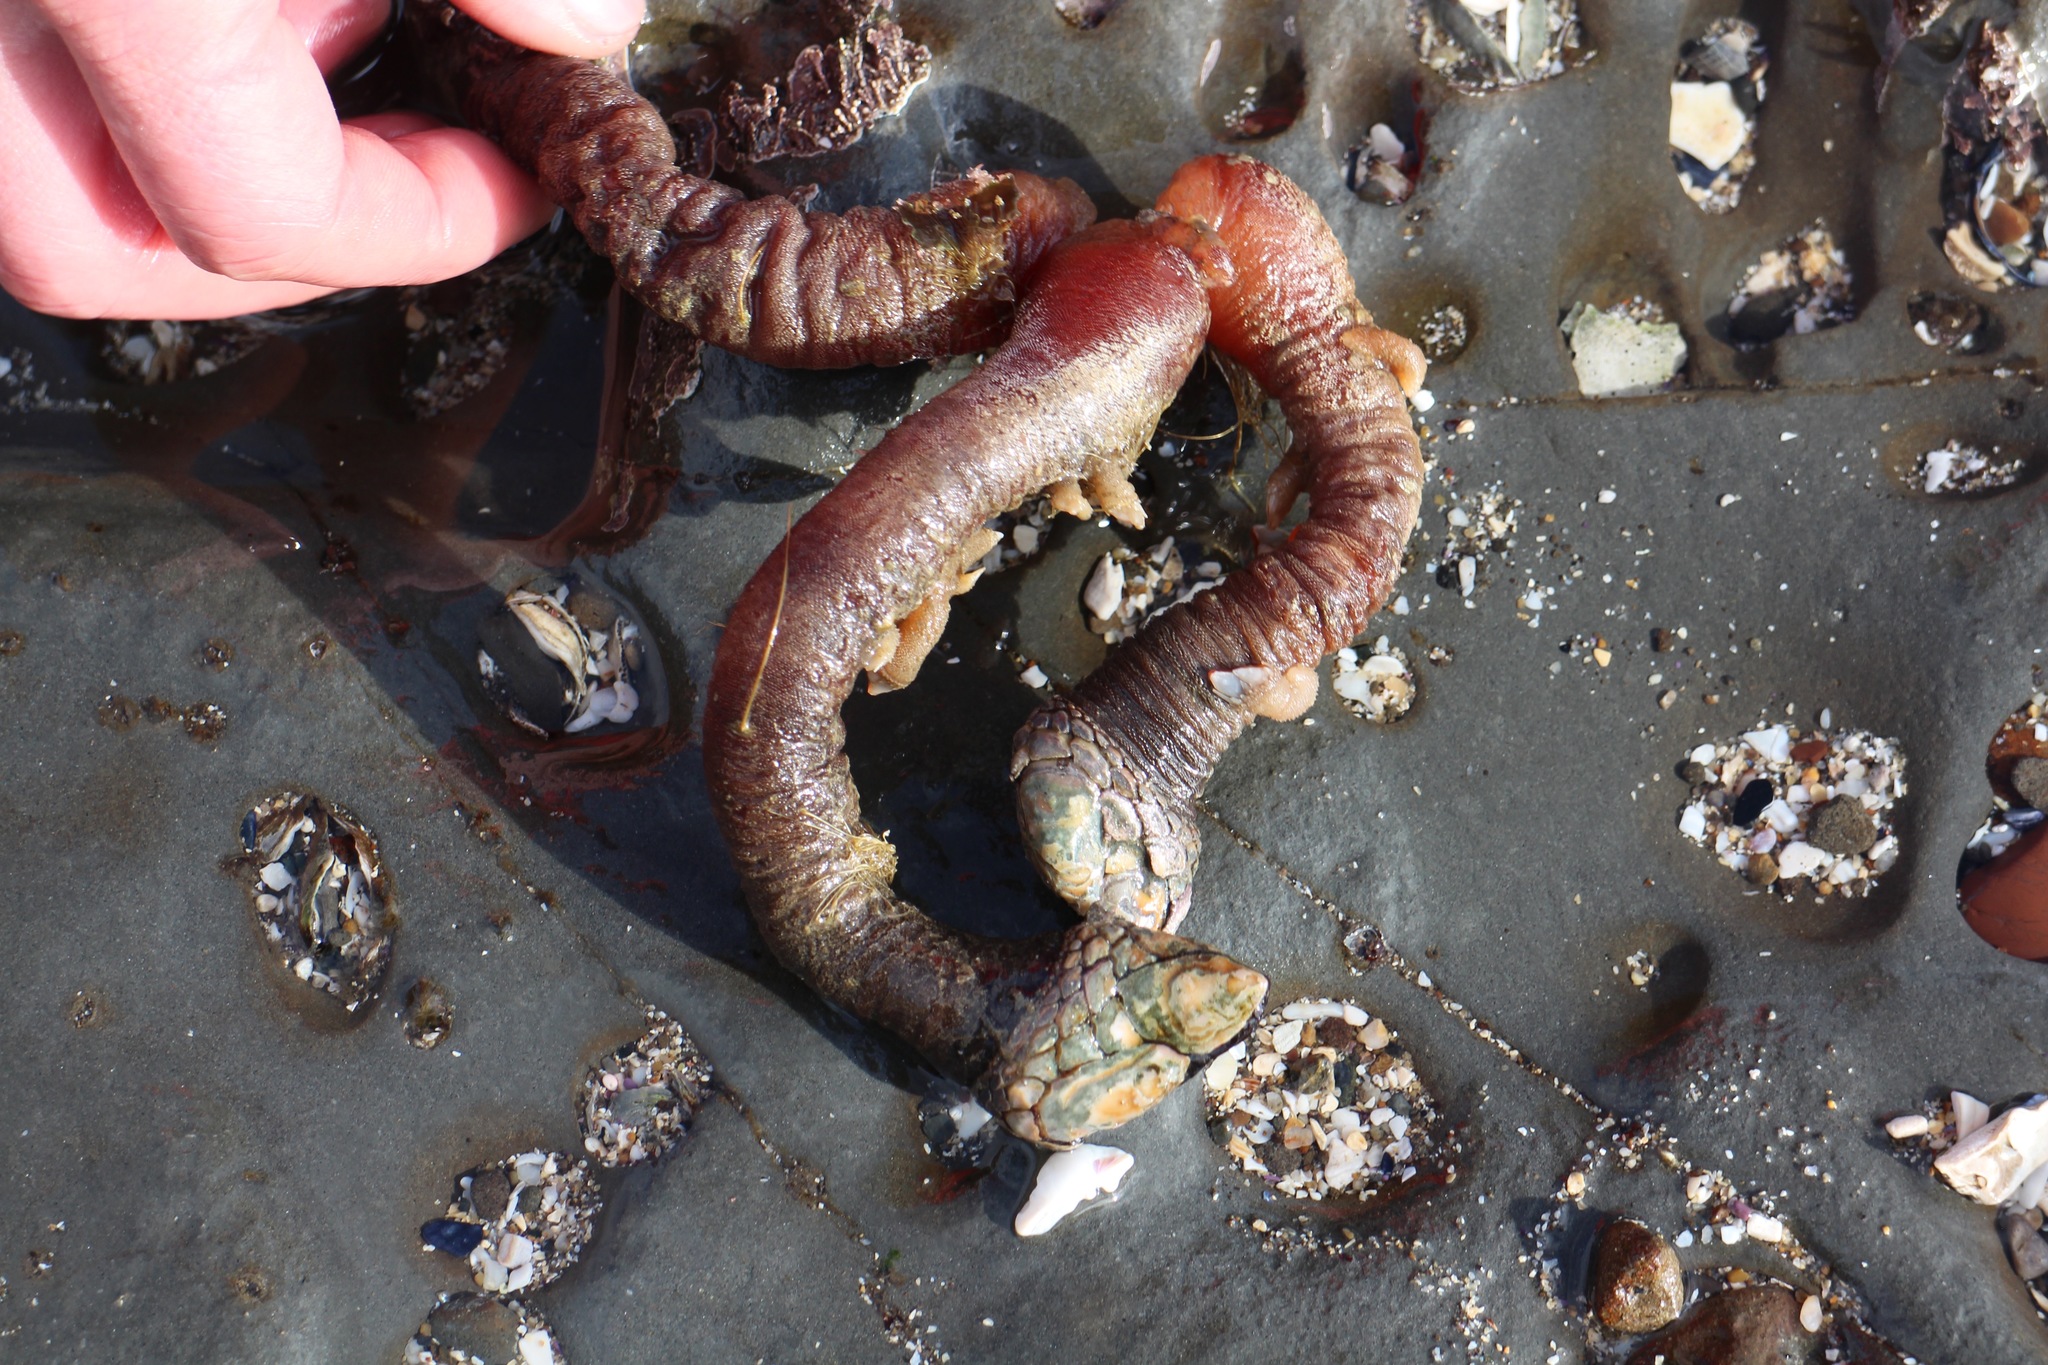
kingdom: Animalia
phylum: Arthropoda
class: Maxillopoda
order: Pedunculata
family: Pollicipedidae
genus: Pollicipes
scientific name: Pollicipes polymerus
